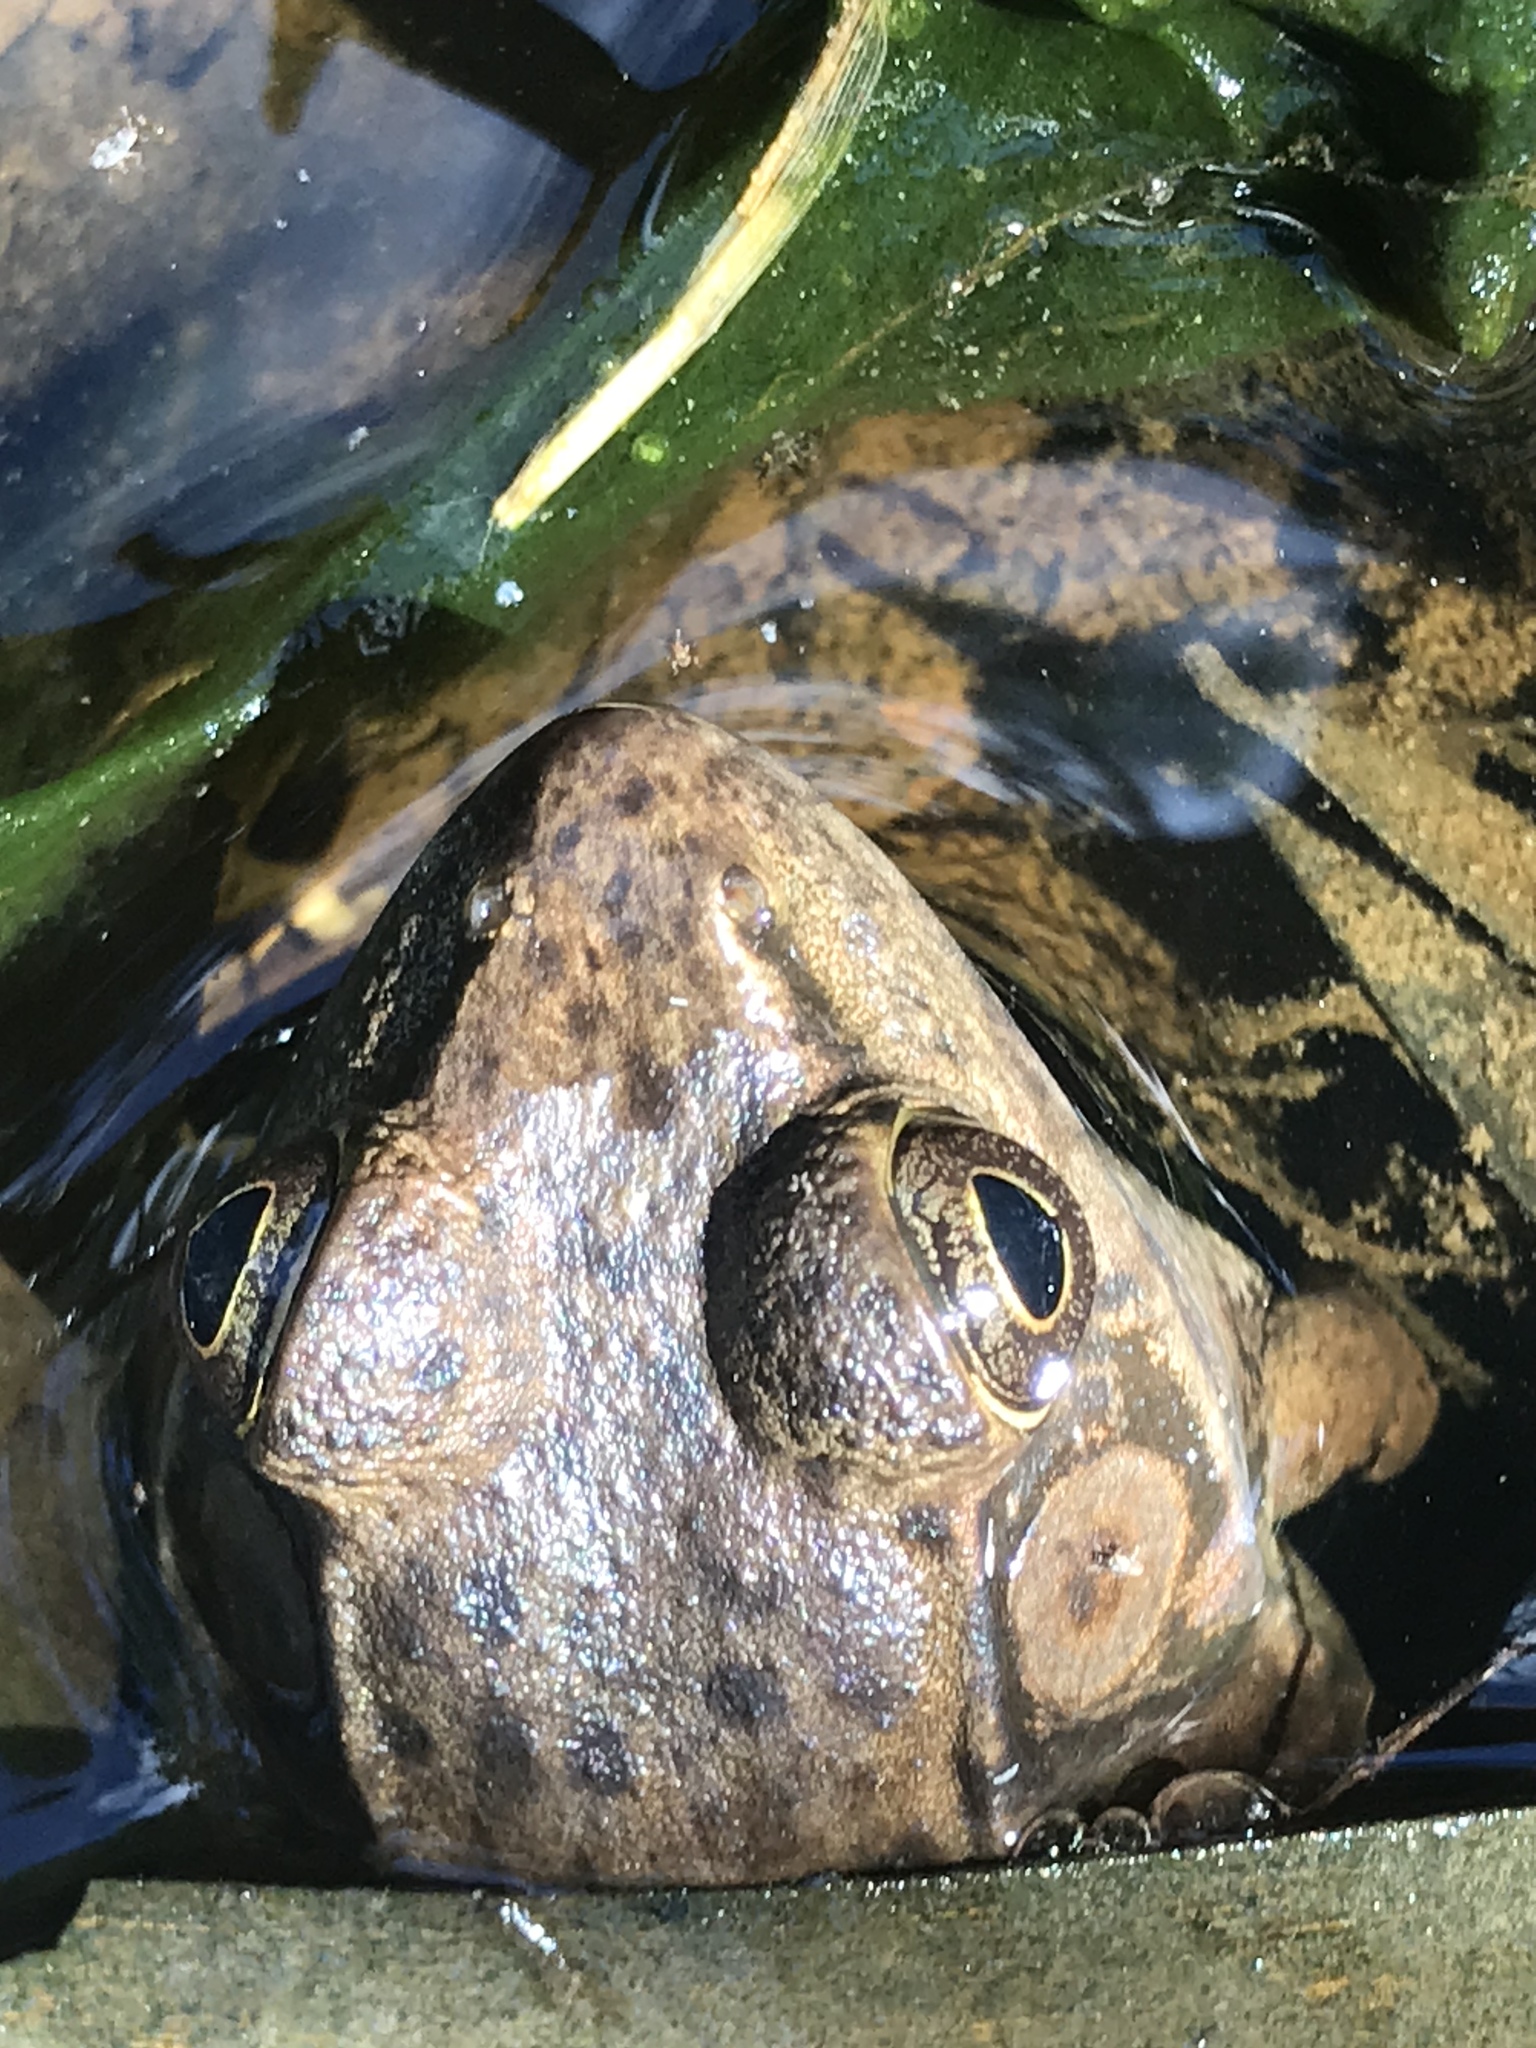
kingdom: Animalia
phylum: Chordata
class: Amphibia
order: Anura
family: Ranidae
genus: Lithobates
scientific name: Lithobates clamitans
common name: Green frog
